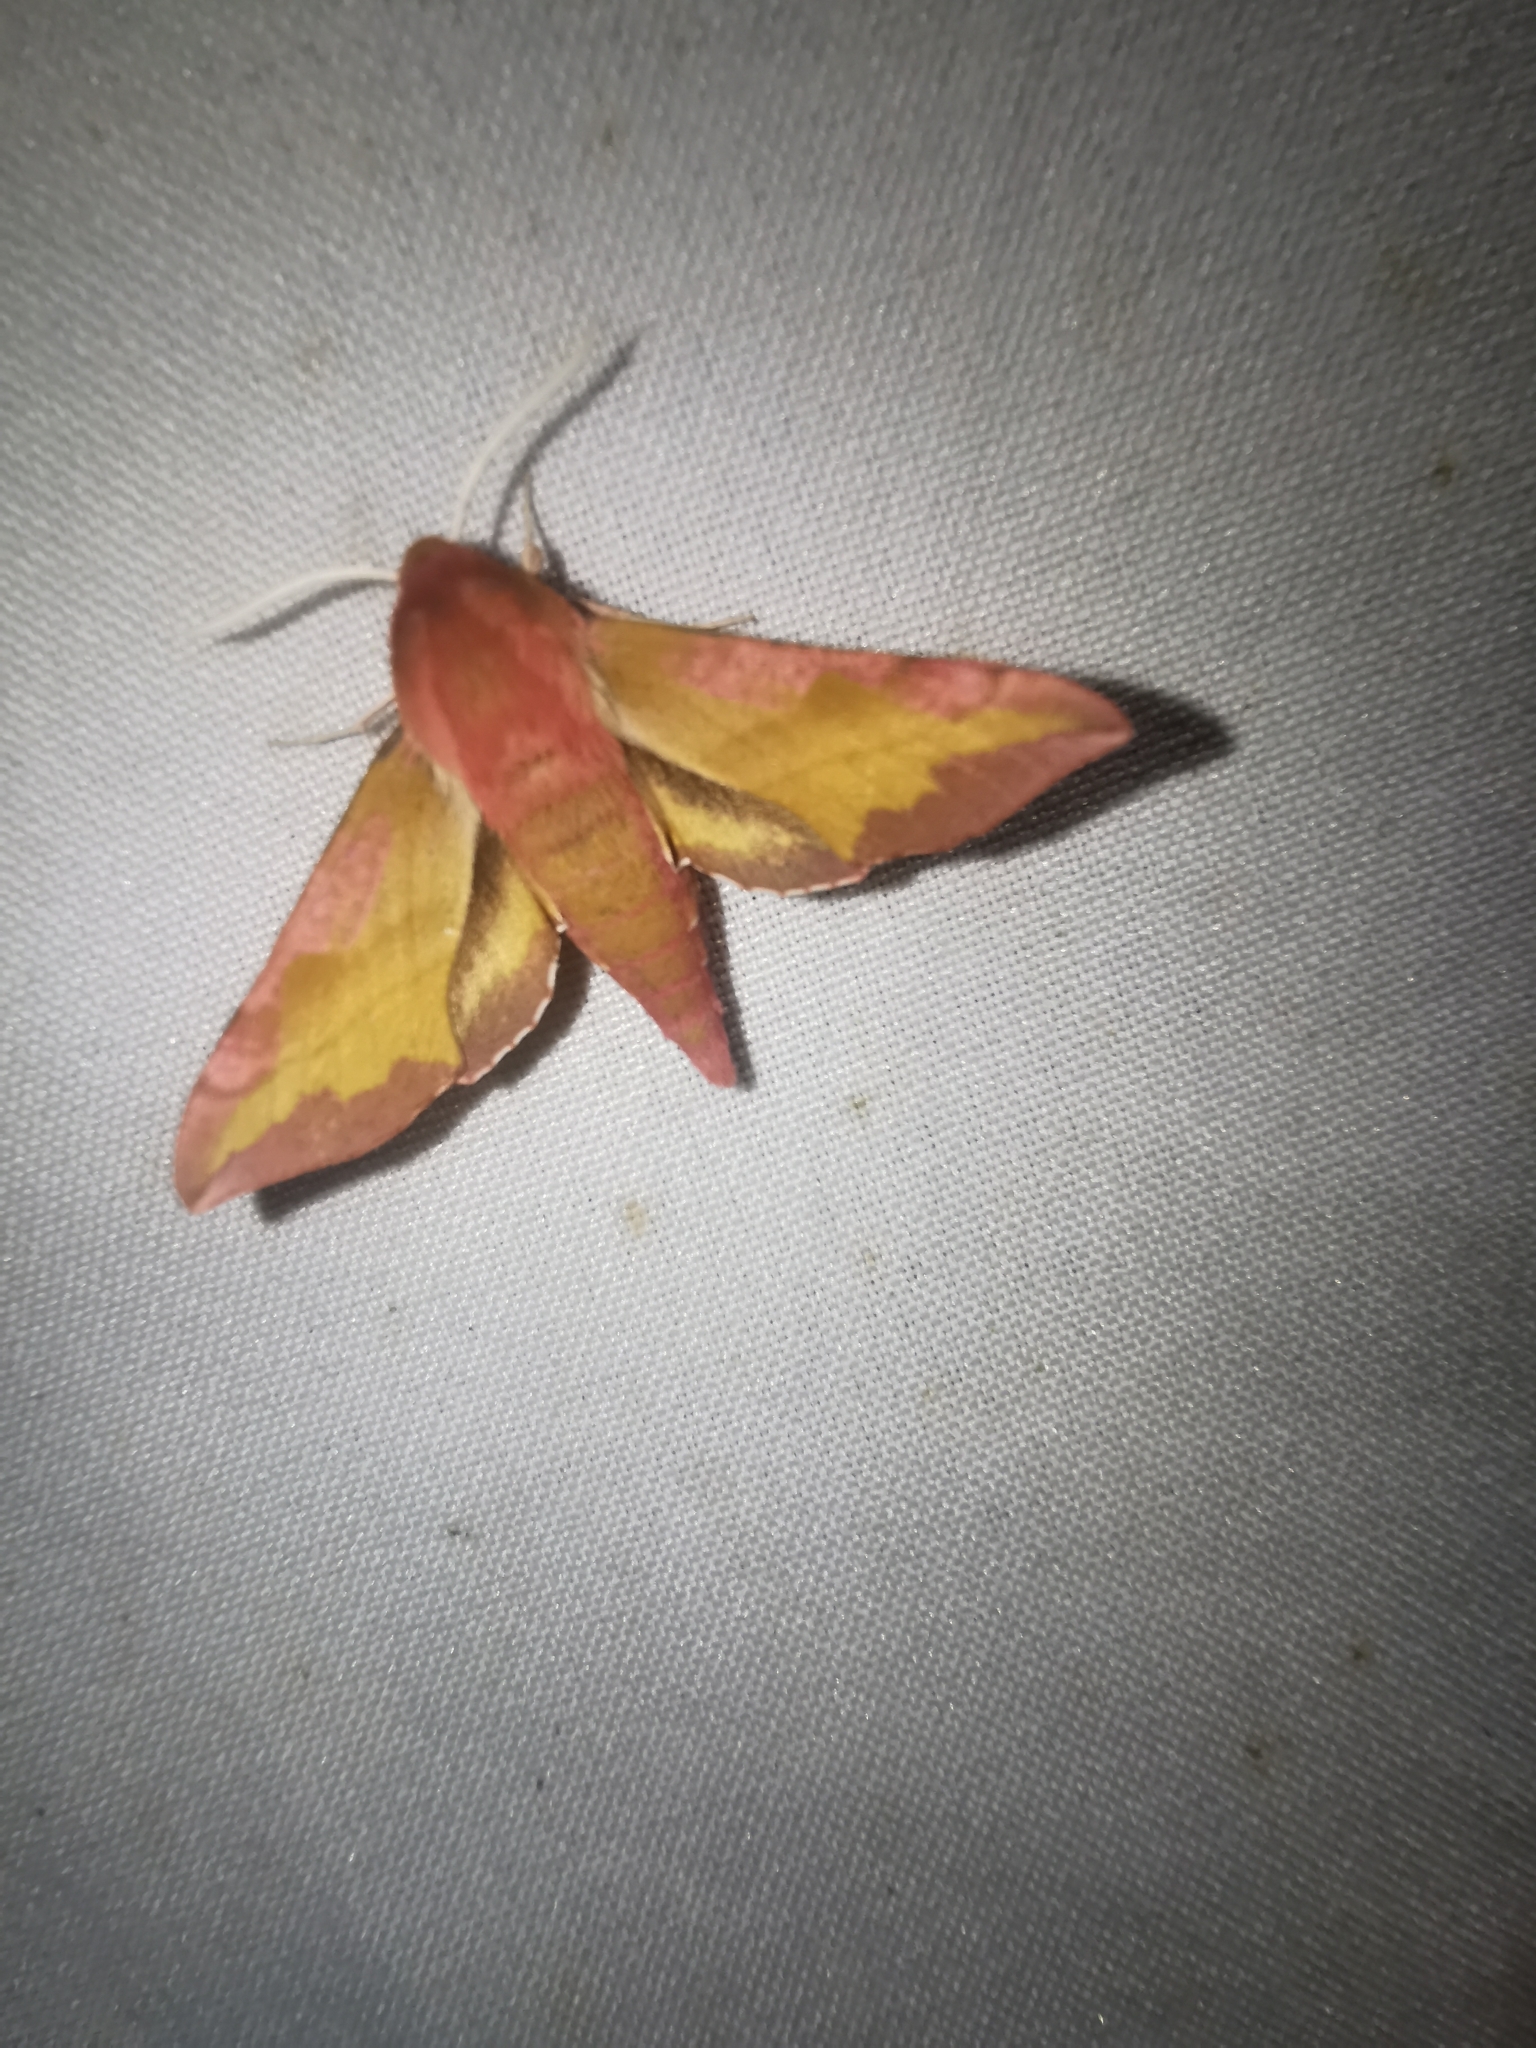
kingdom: Animalia
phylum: Arthropoda
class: Insecta
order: Lepidoptera
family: Sphingidae
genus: Deilephila
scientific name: Deilephila porcellus
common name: Small elephant hawk-moth
